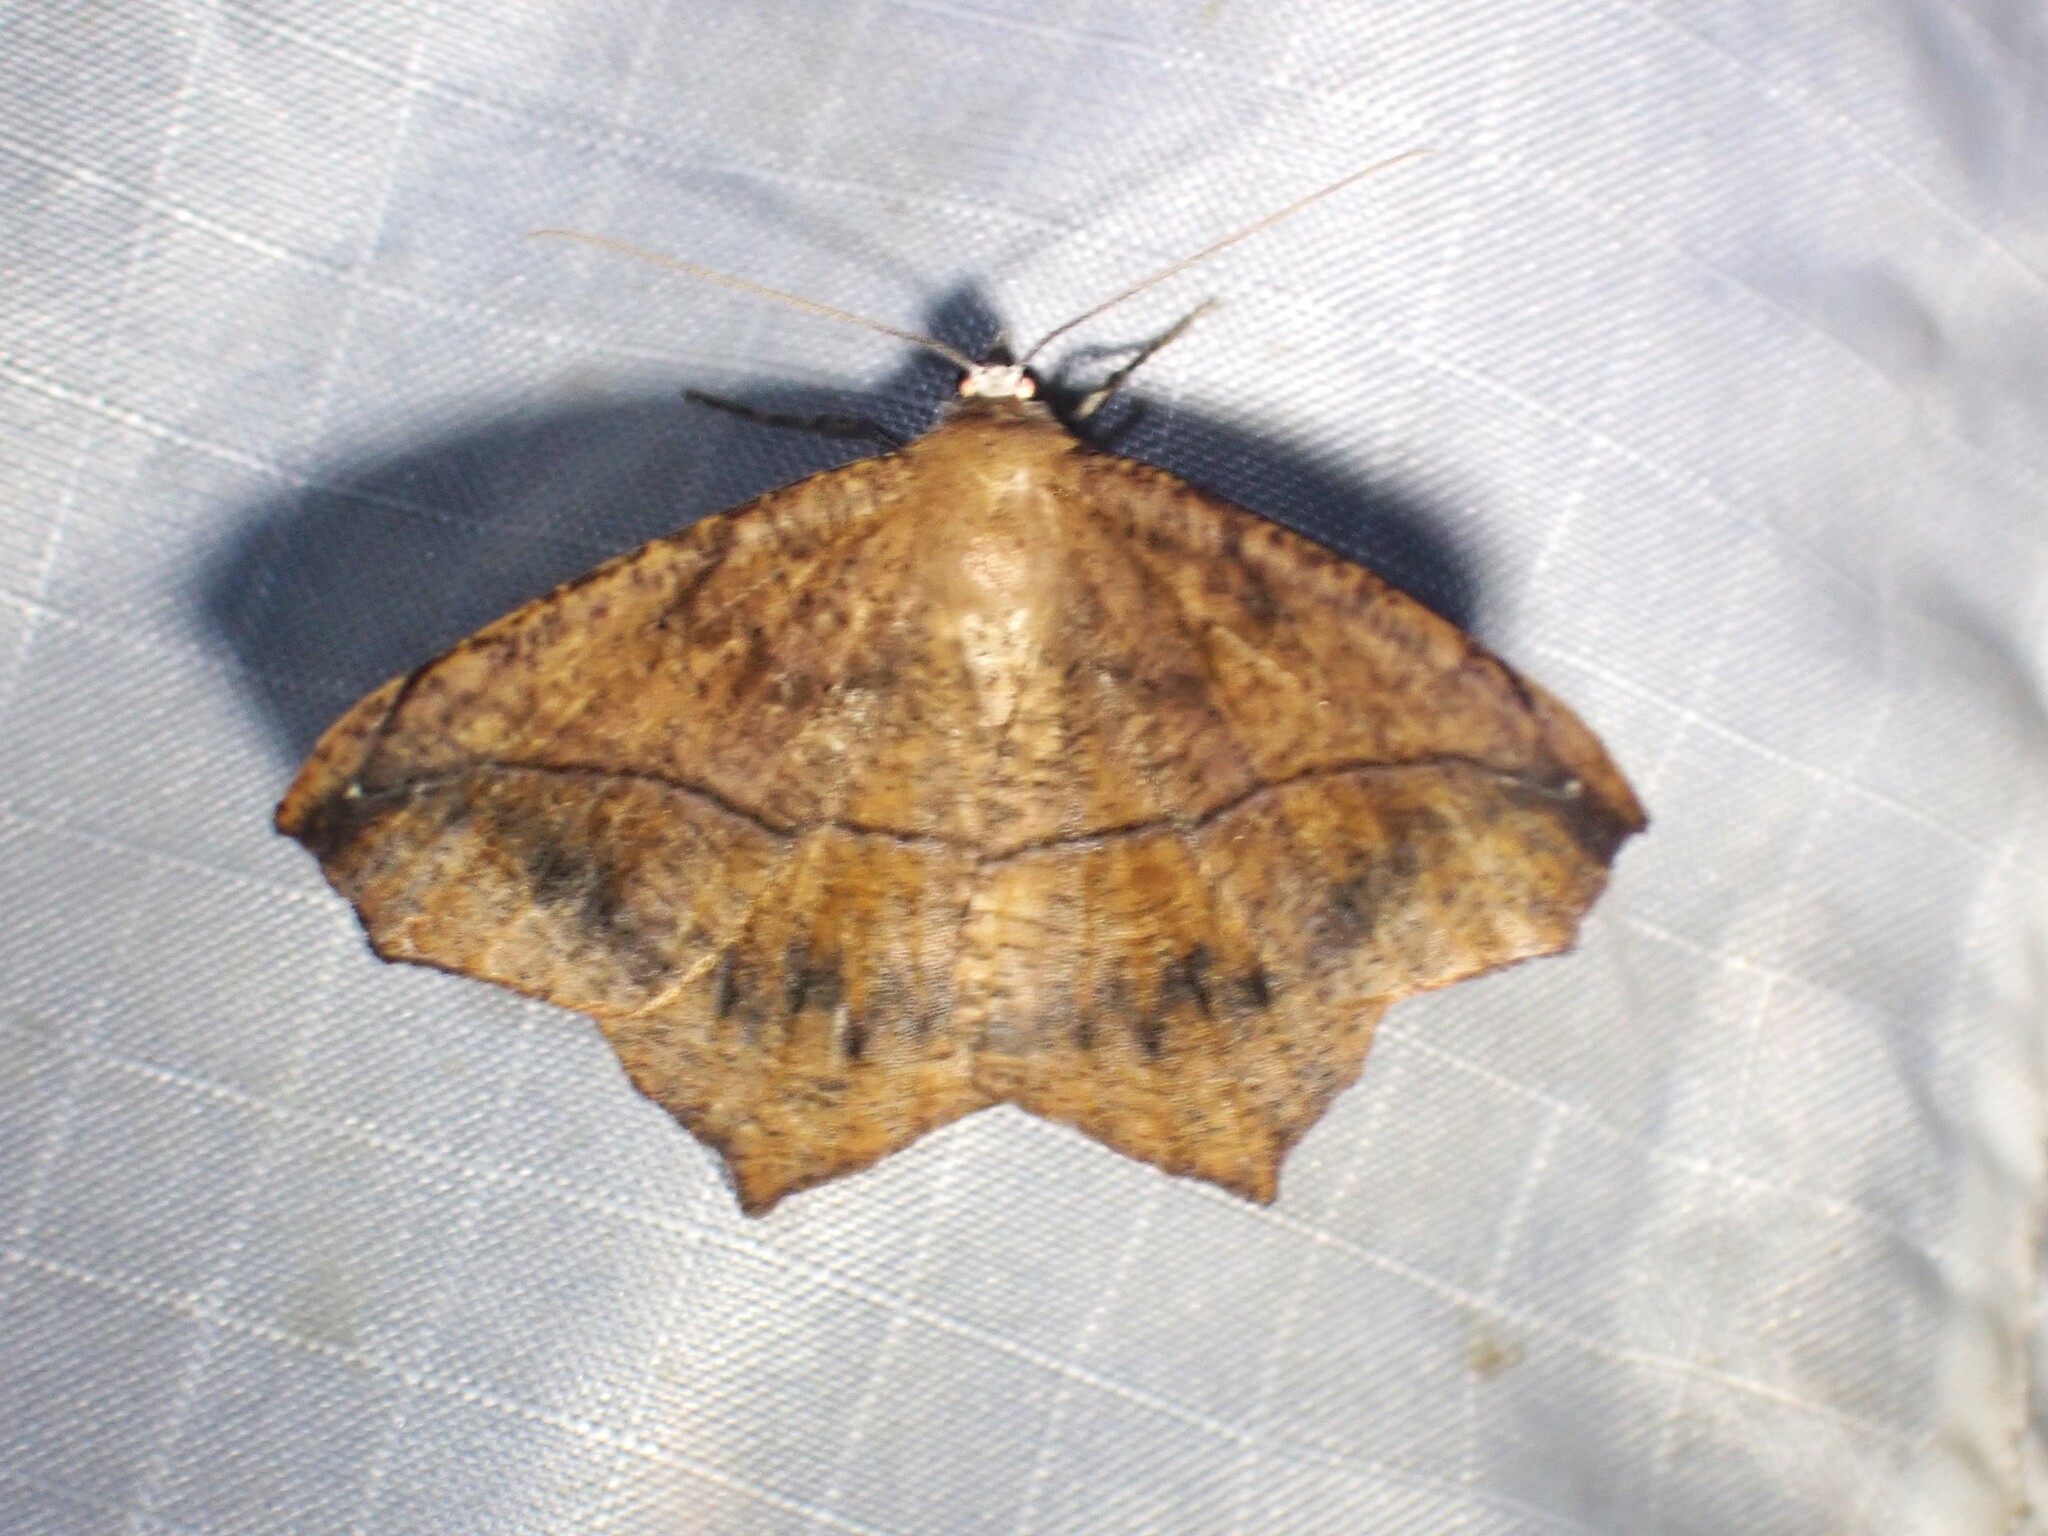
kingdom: Animalia
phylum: Arthropoda
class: Insecta
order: Lepidoptera
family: Geometridae
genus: Prochoerodes
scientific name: Prochoerodes lineola
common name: Large maple spanworm
